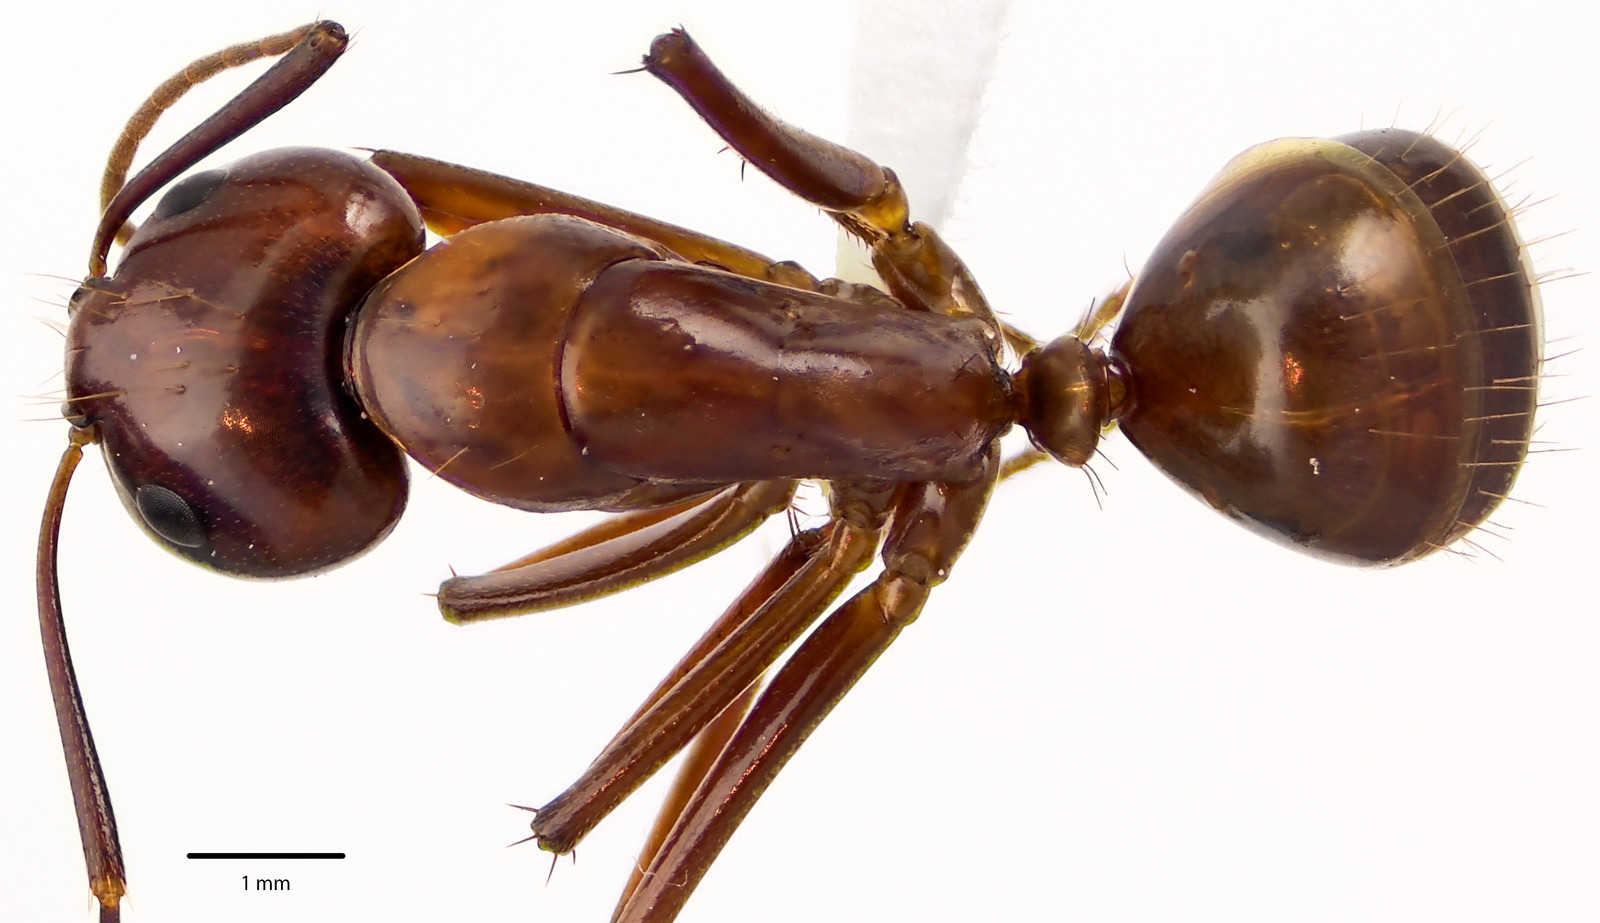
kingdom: Animalia
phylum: Arthropoda
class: Insecta
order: Hymenoptera
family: Formicidae
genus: Camponotus
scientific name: Camponotus castaneus
